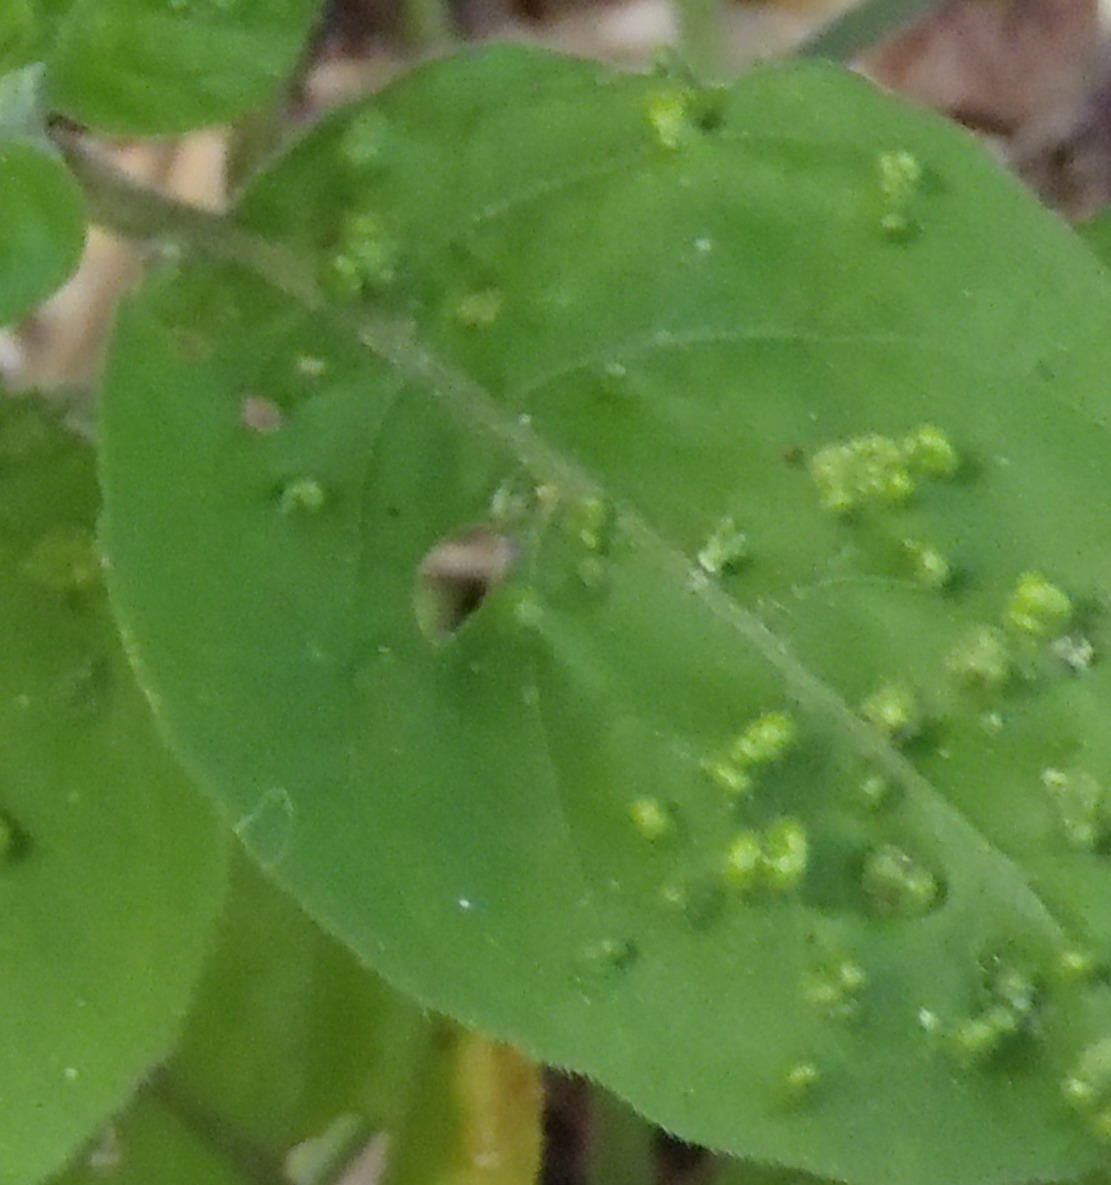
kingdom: Animalia
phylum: Arthropoda
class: Arachnida
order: Trombidiformes
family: Eriophyidae
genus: Aceria
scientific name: Aceria
